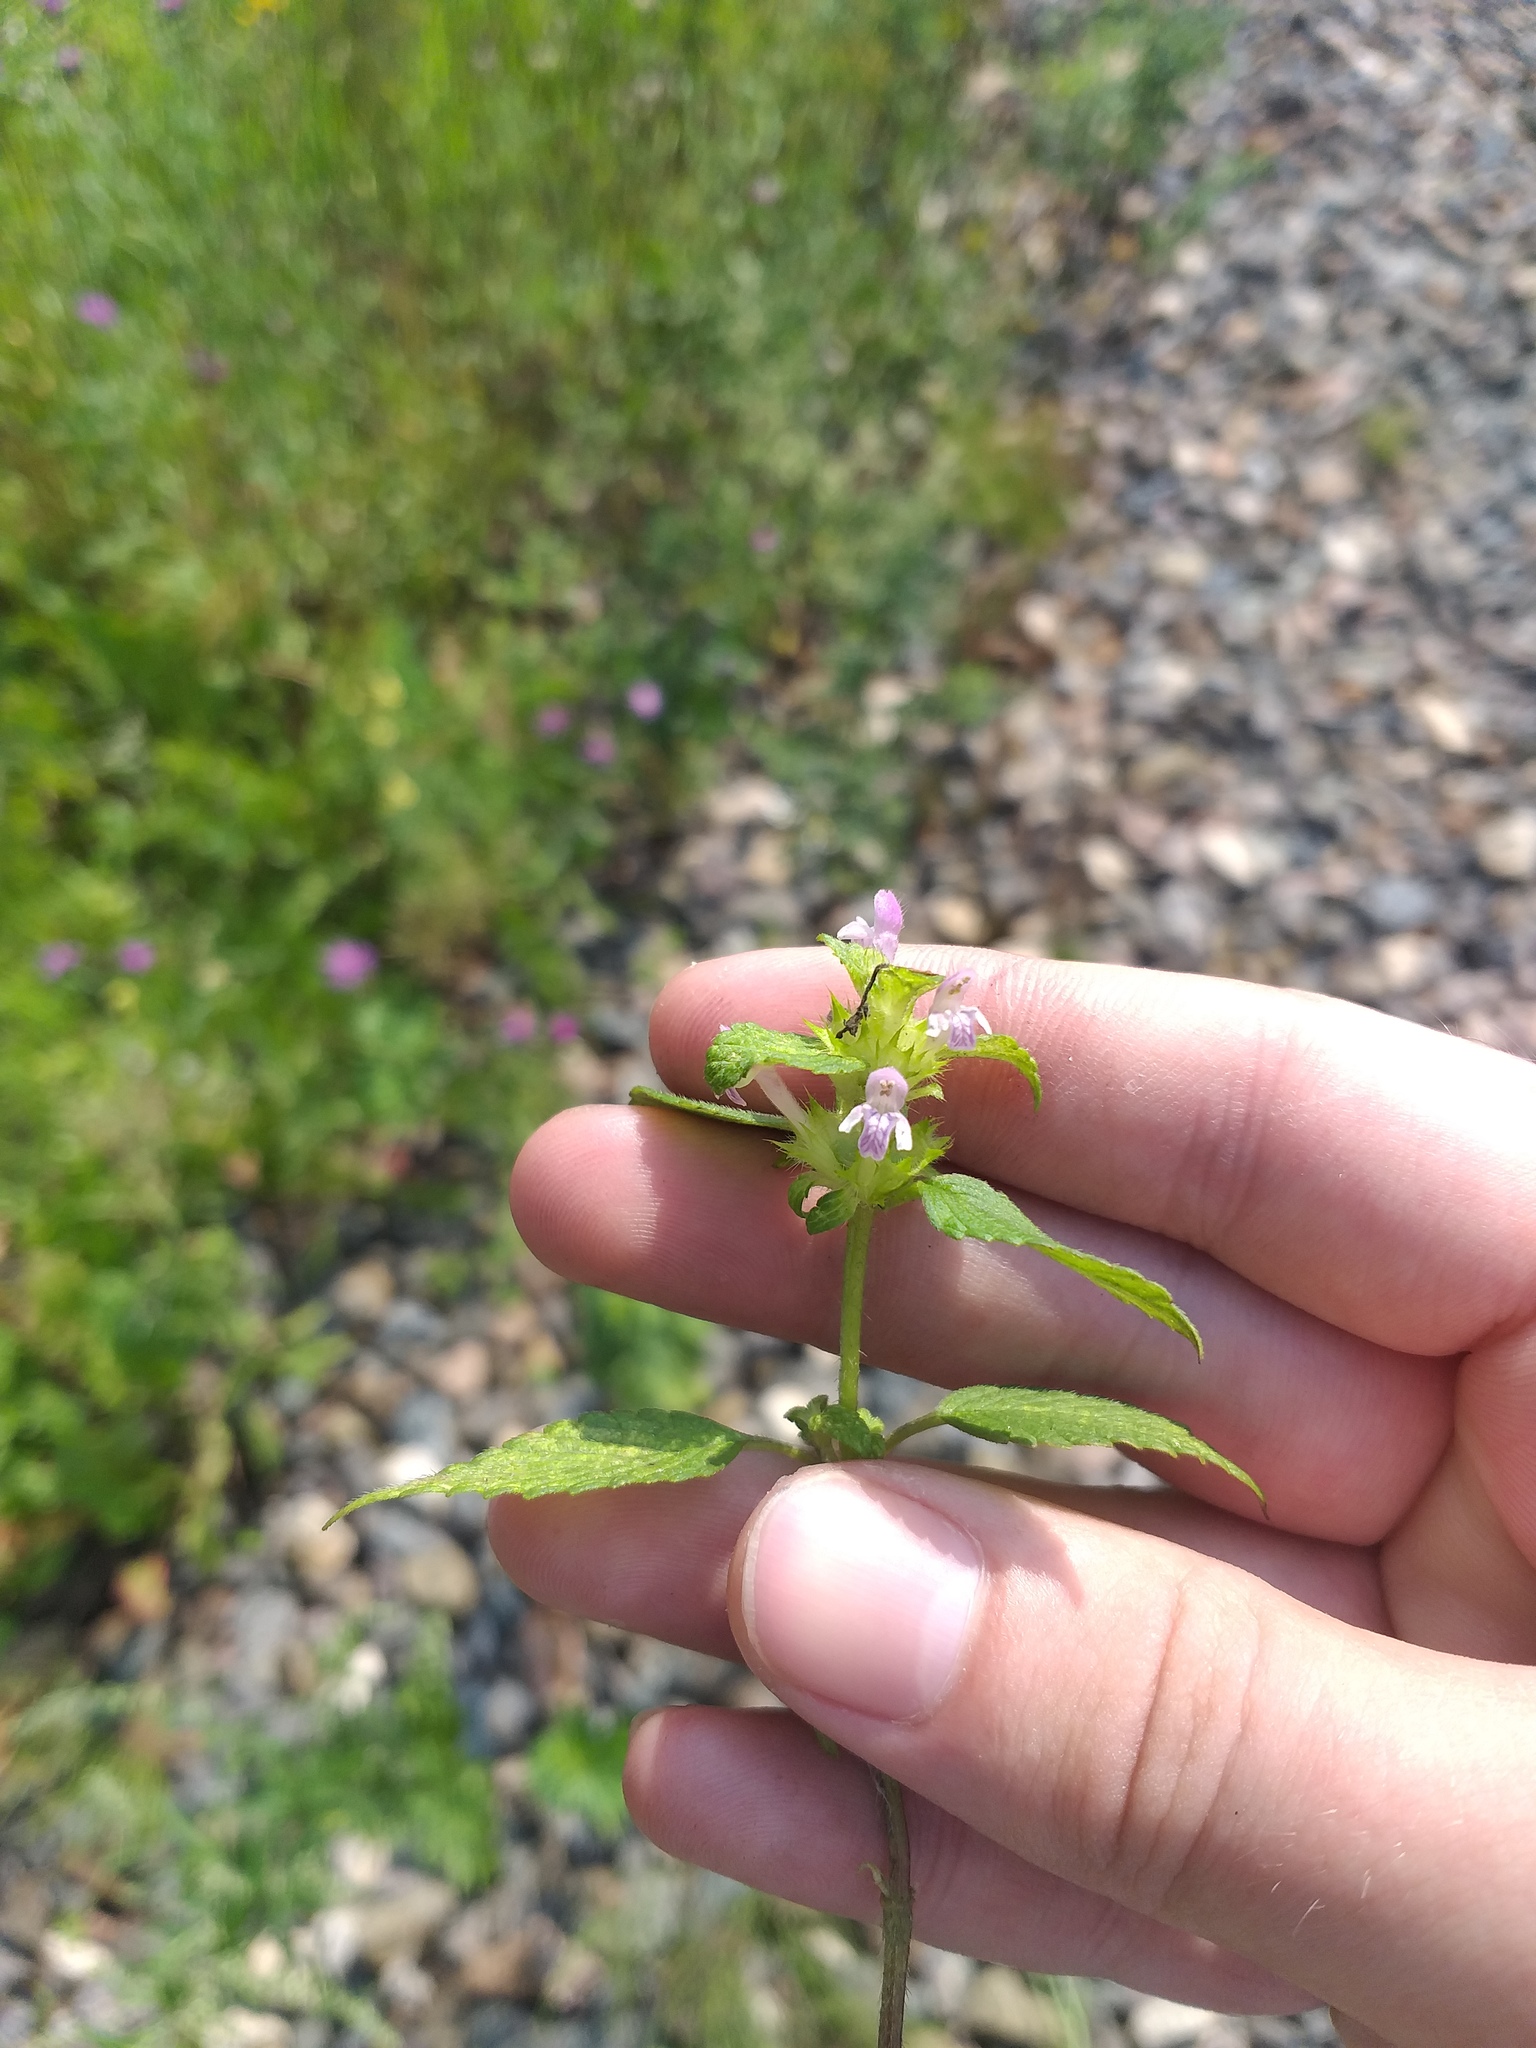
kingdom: Plantae
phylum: Tracheophyta
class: Magnoliopsida
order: Lamiales
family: Lamiaceae
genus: Galeopsis
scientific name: Galeopsis bifida
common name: Bifid hemp-nettle
